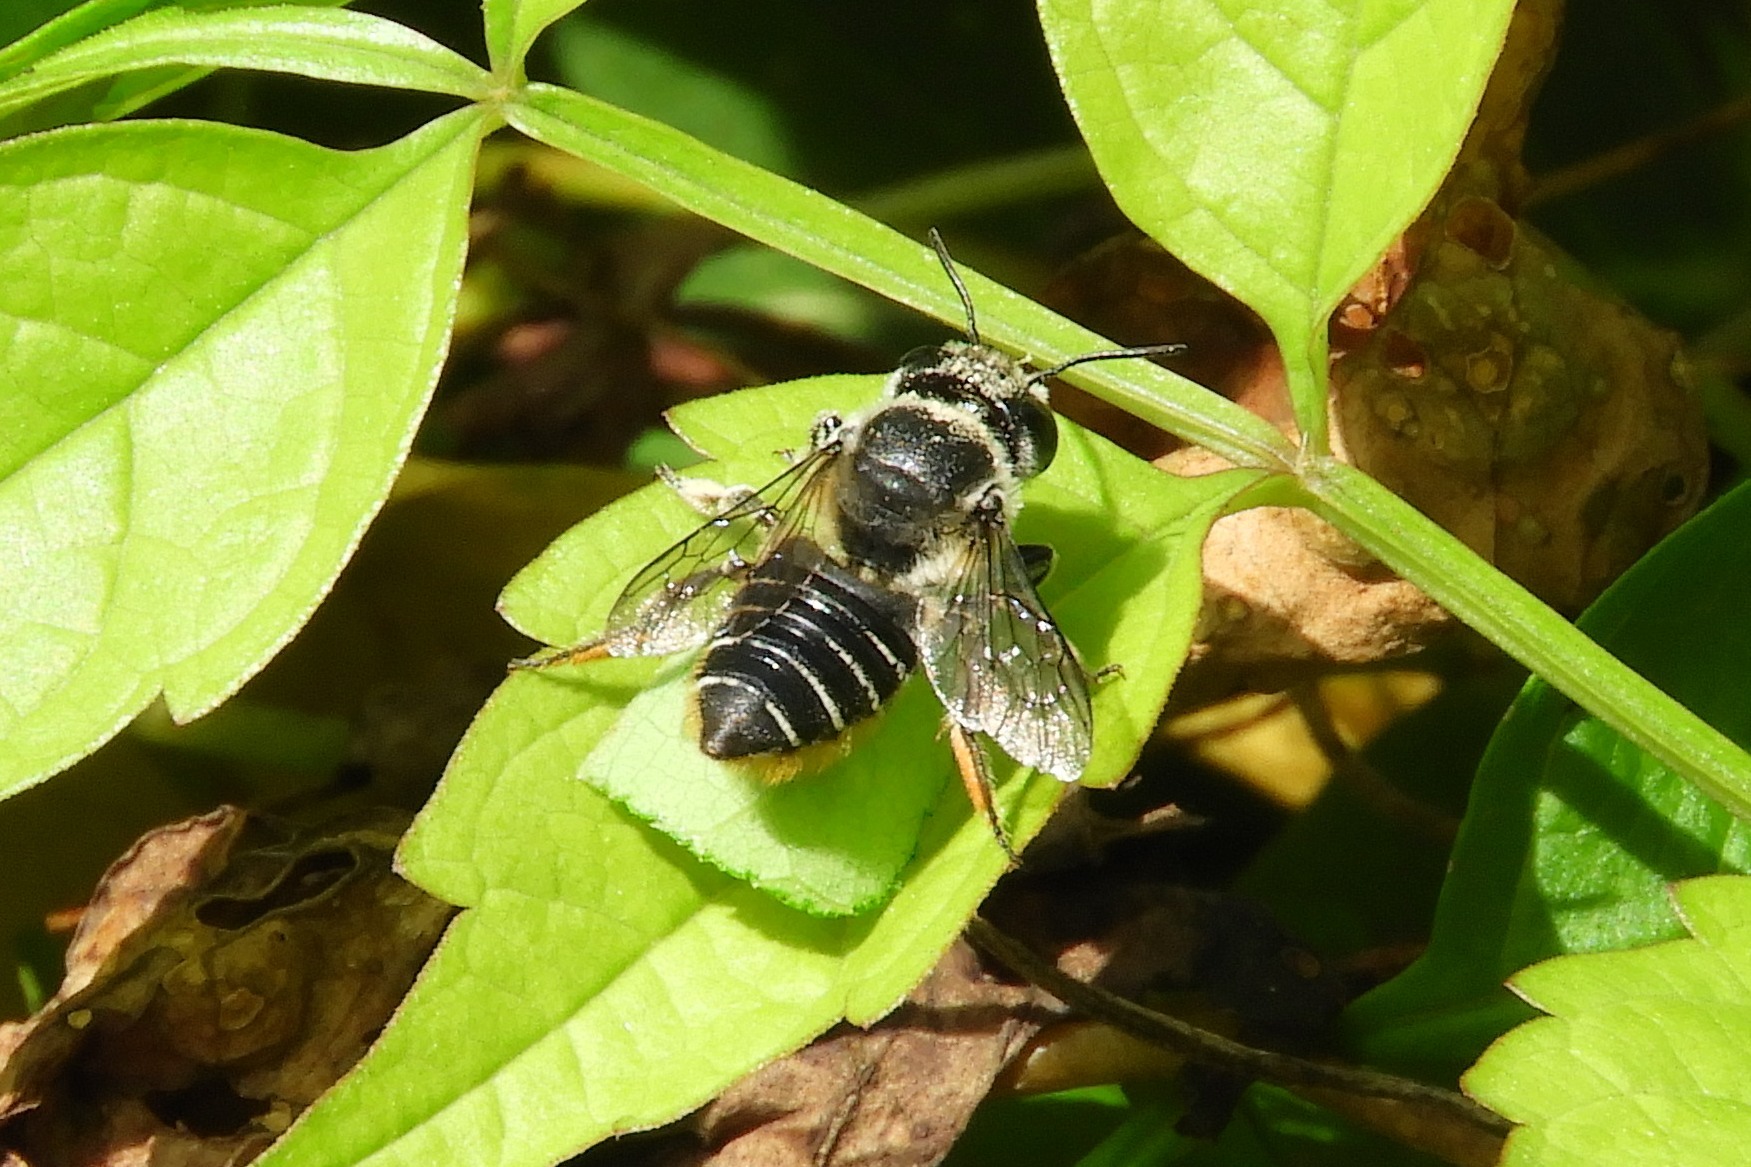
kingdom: Animalia
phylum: Arthropoda
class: Insecta
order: Hymenoptera
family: Megachilidae
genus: Megachile
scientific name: Megachile mendica
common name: Flat-tailed leafcutter
